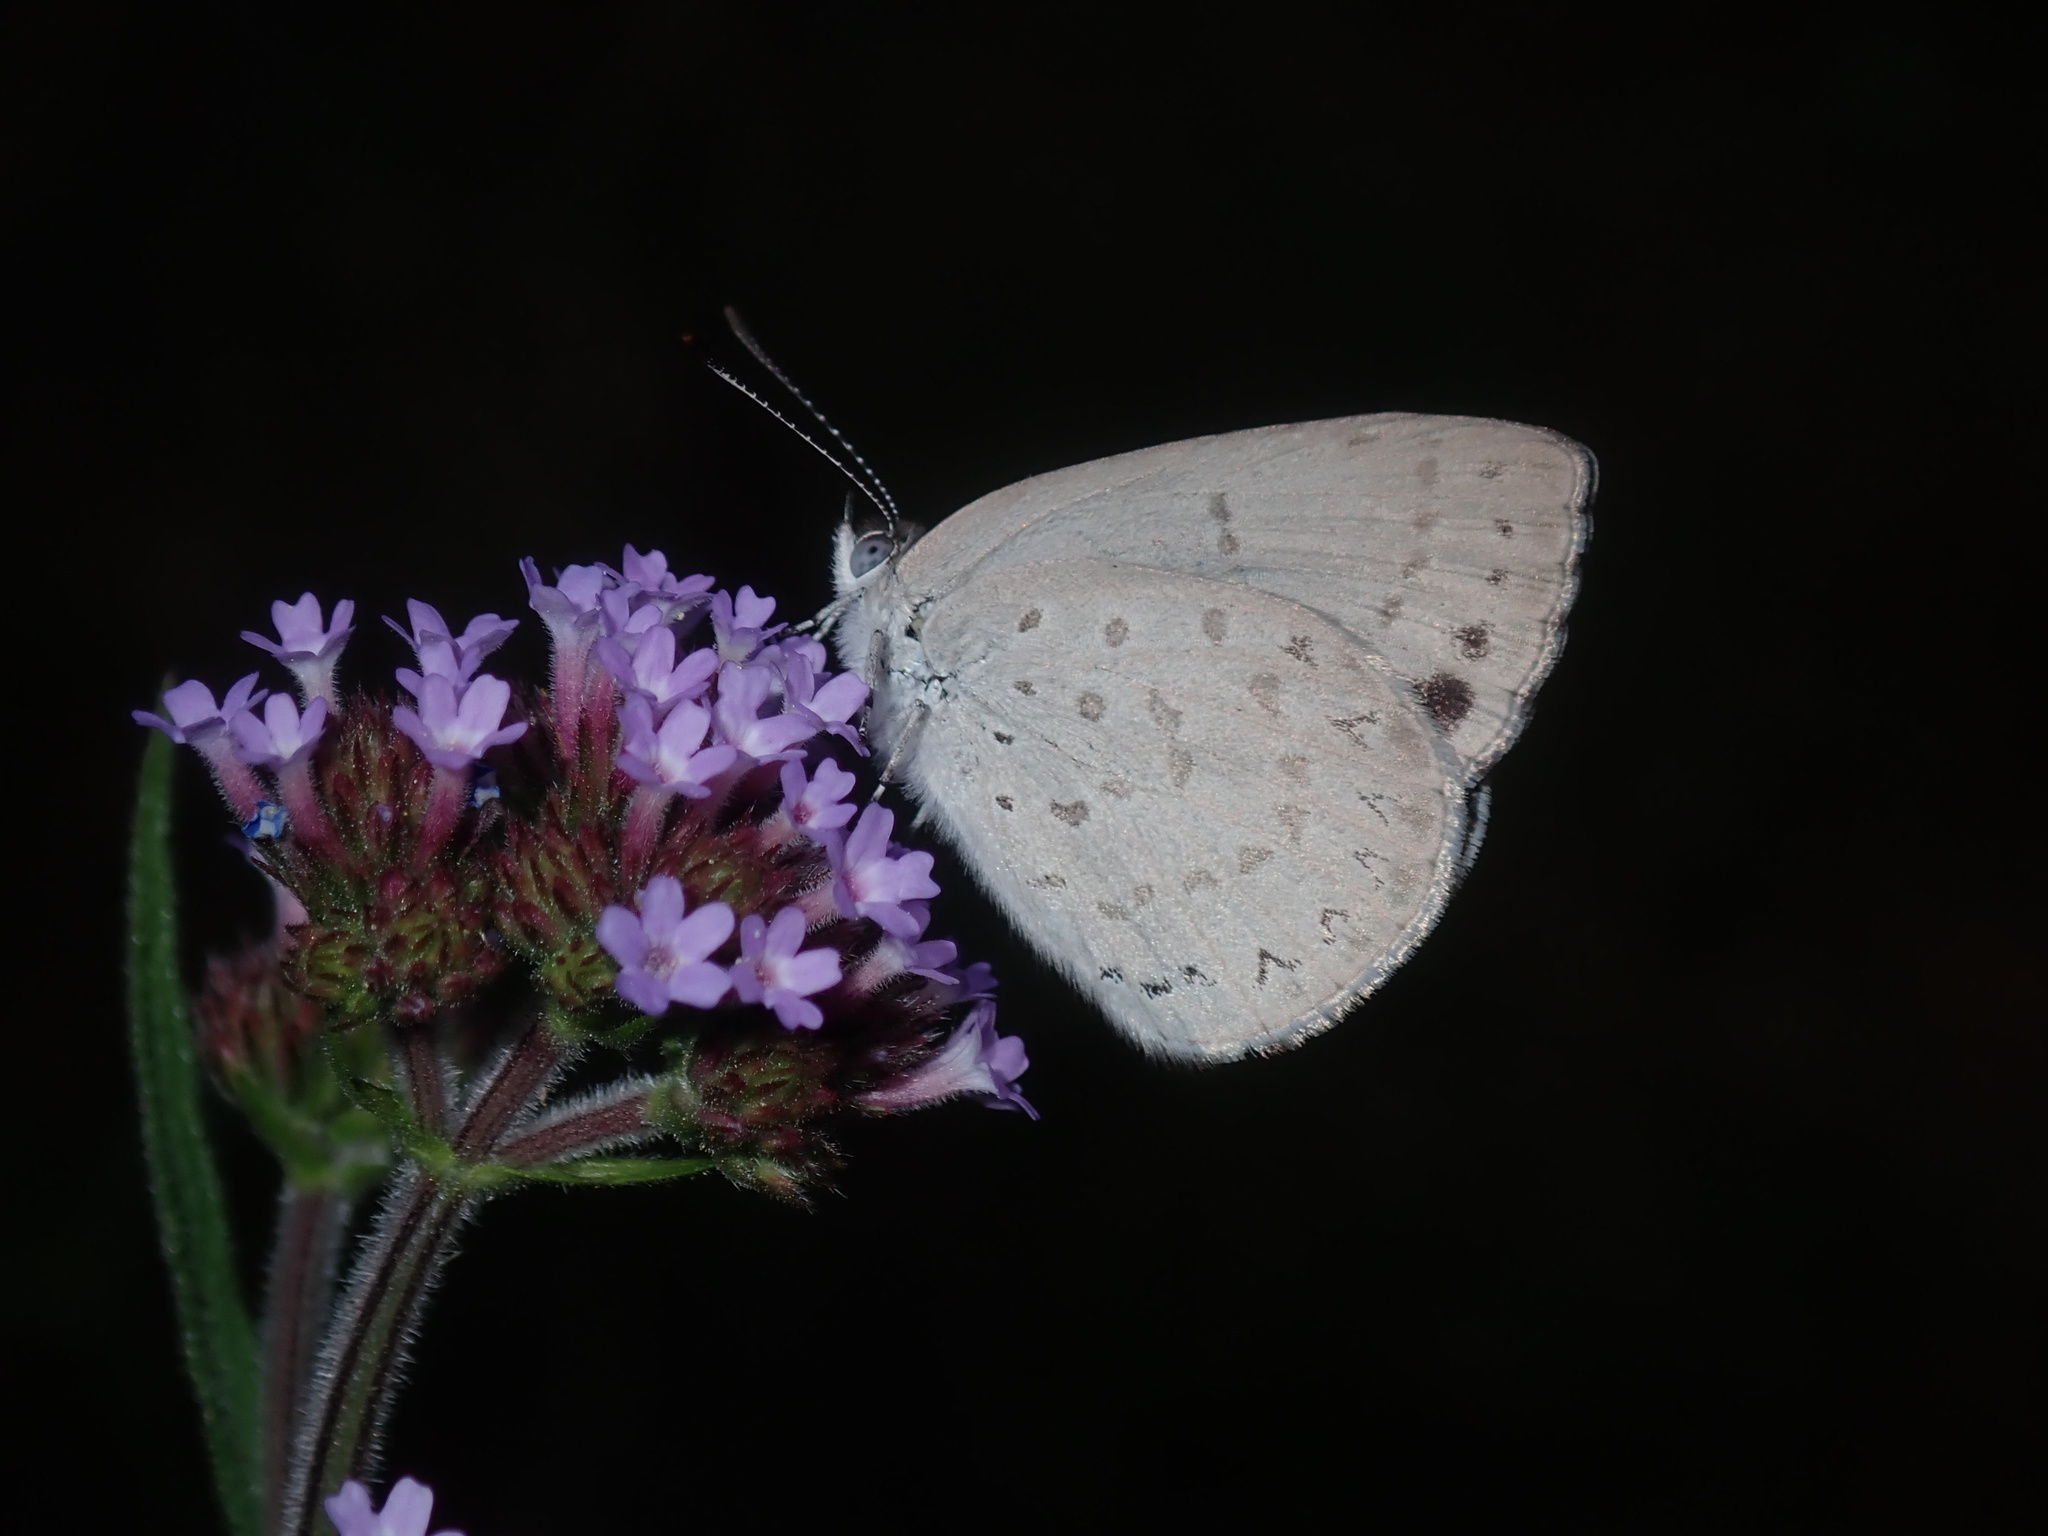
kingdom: Animalia
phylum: Arthropoda
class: Insecta
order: Lepidoptera
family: Lycaenidae
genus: Candalides
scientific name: Candalides
